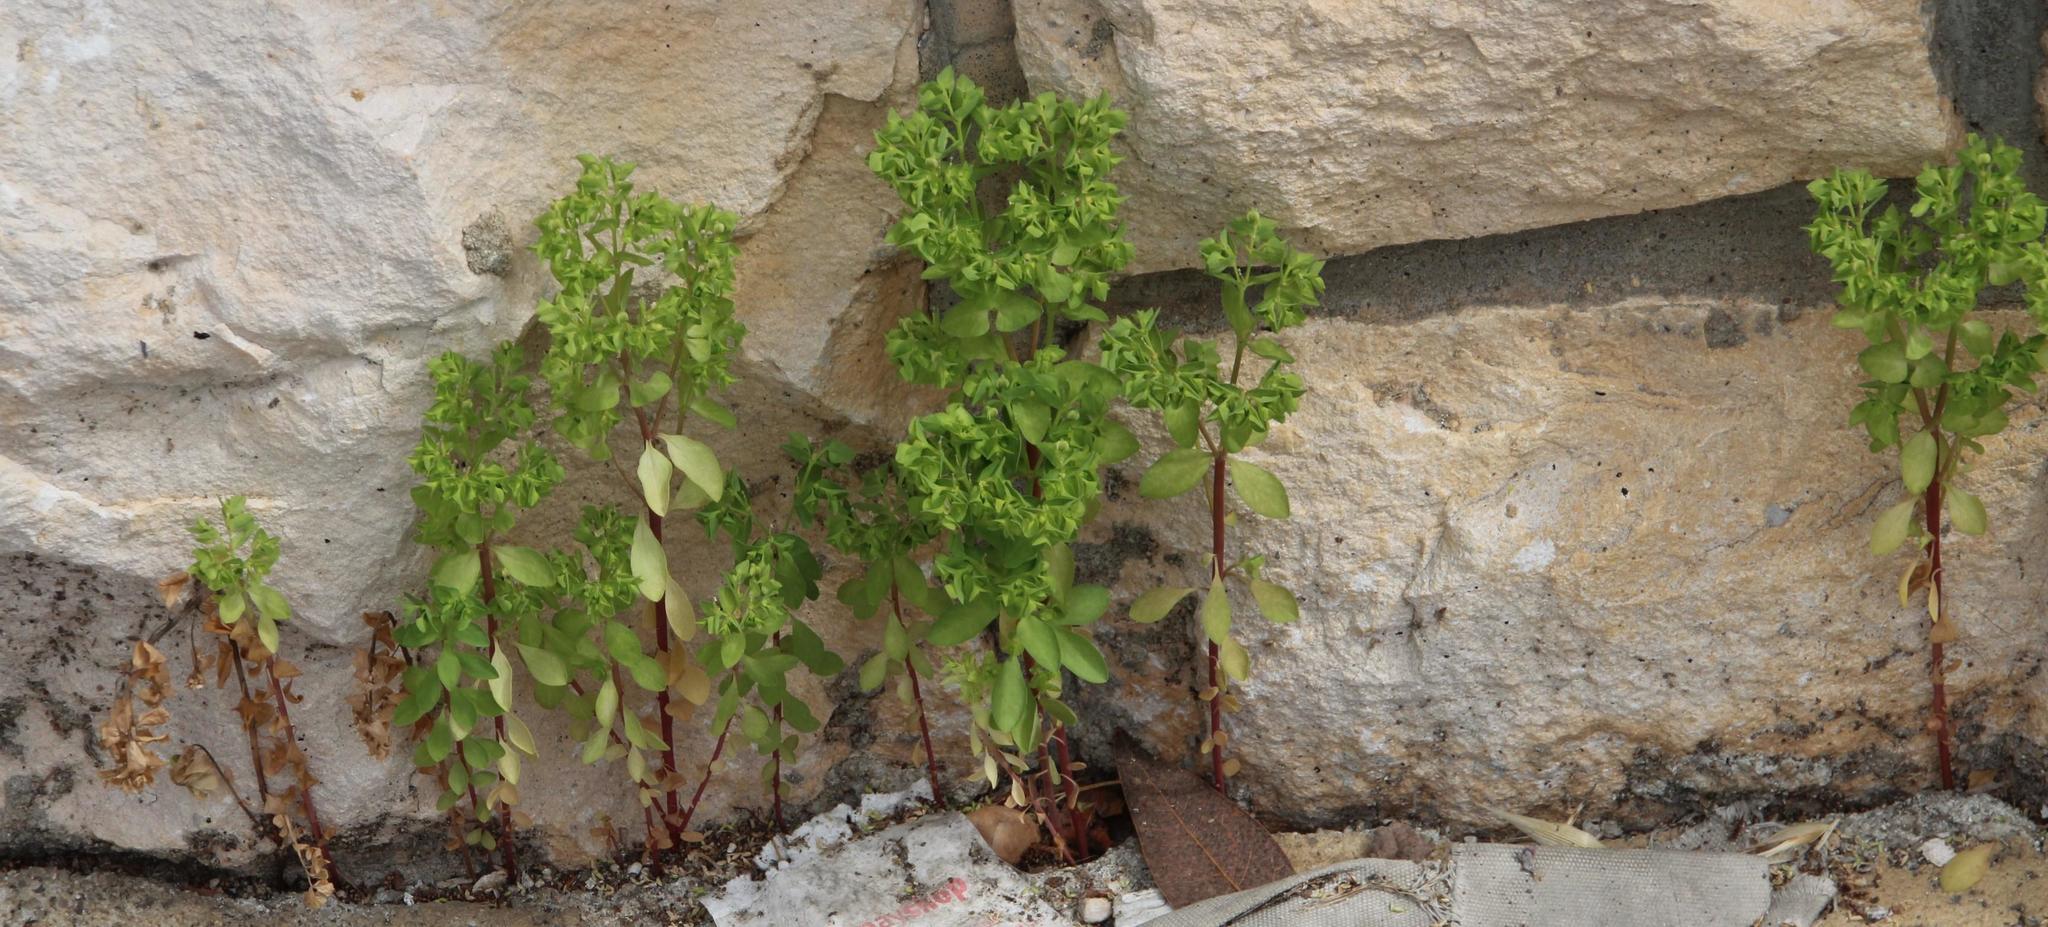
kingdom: Plantae
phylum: Tracheophyta
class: Magnoliopsida
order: Malpighiales
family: Euphorbiaceae
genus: Euphorbia
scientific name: Euphorbia peplus
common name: Petty spurge
